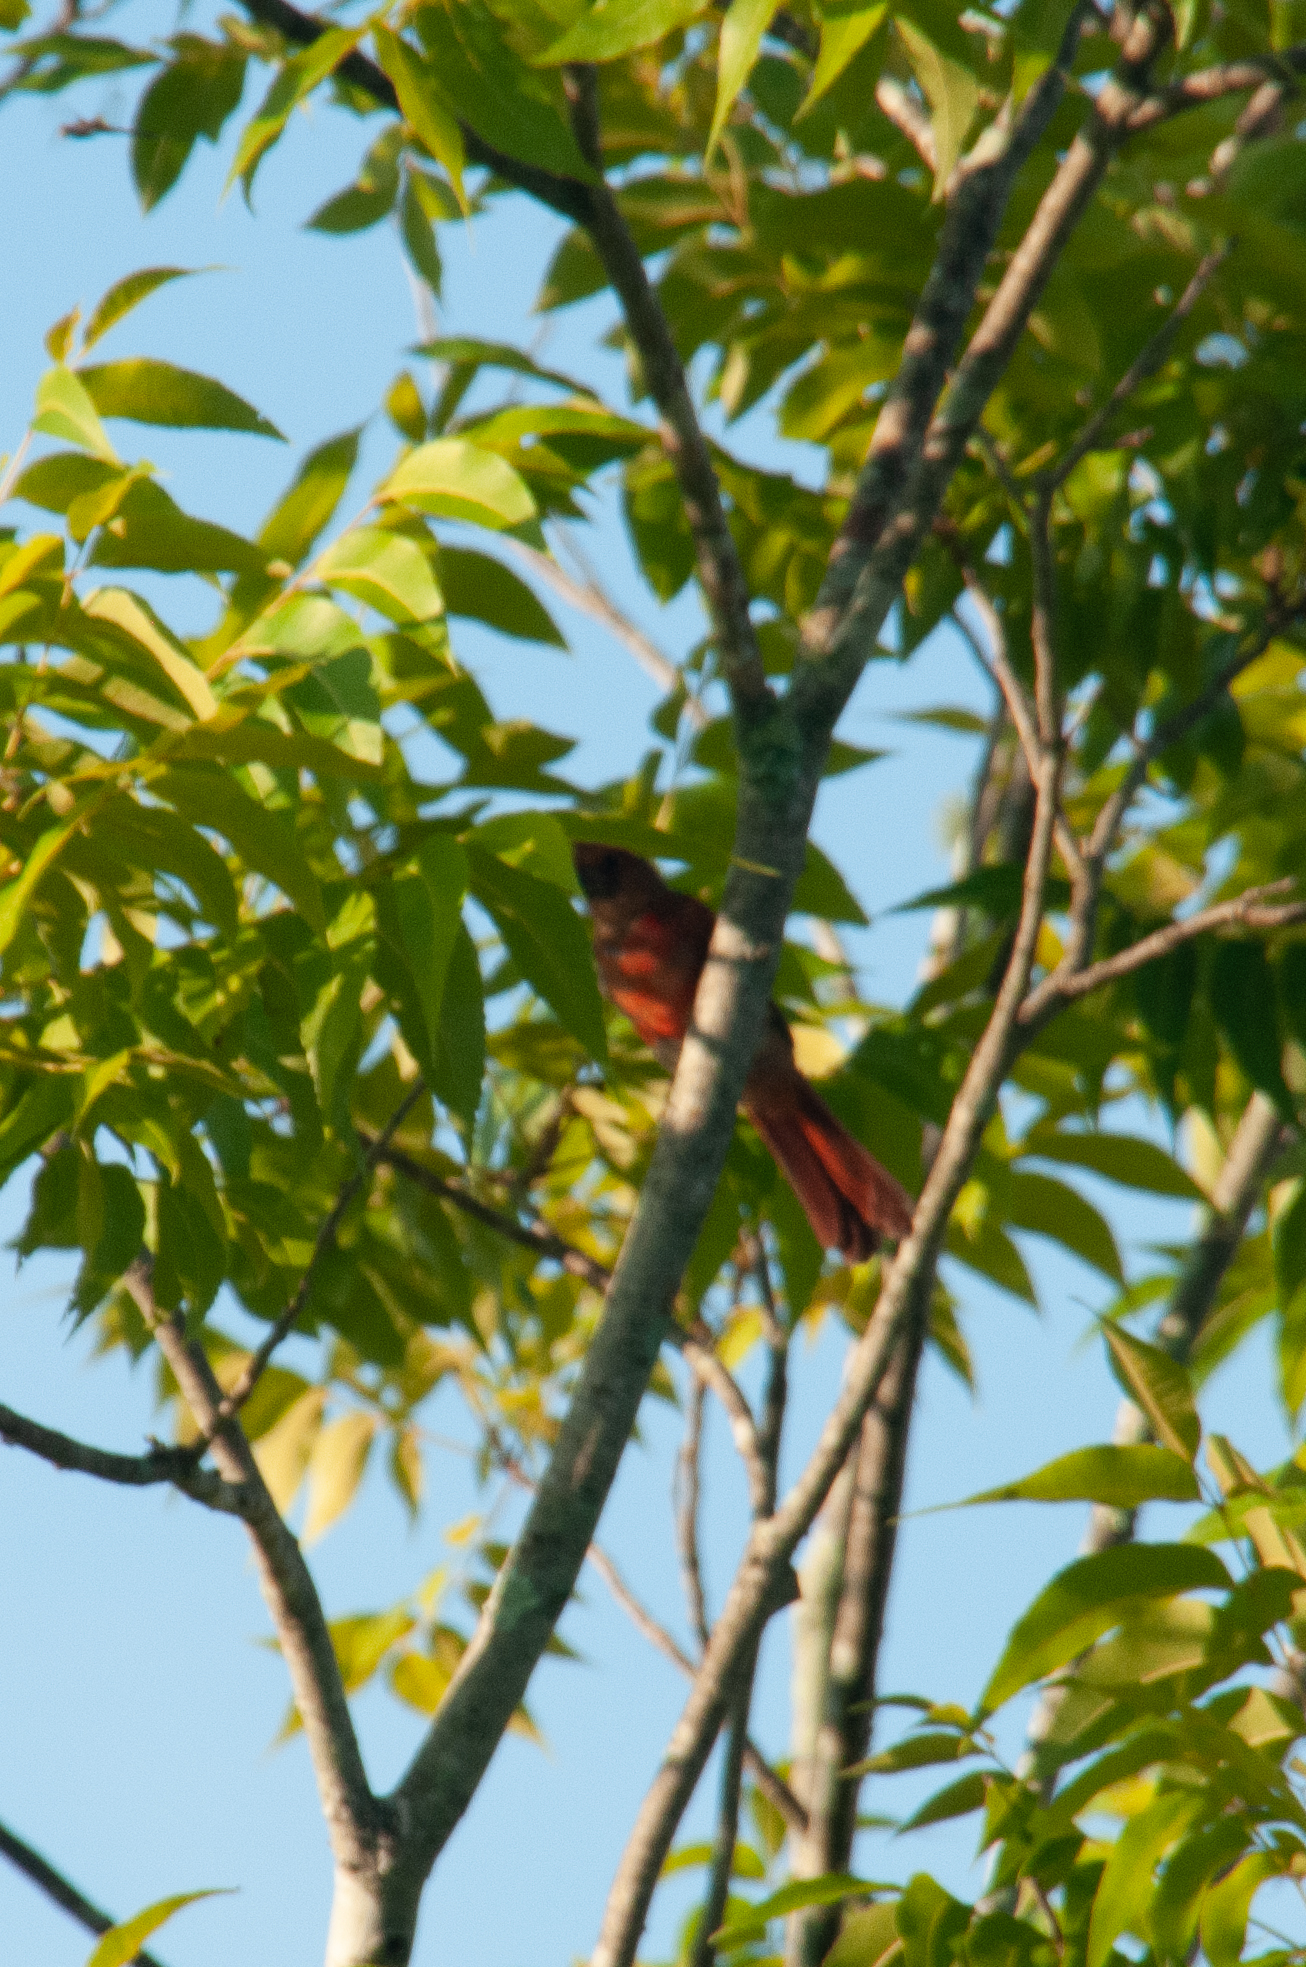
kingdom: Animalia
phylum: Chordata
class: Aves
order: Passeriformes
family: Cardinalidae
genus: Cardinalis
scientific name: Cardinalis cardinalis
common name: Northern cardinal
